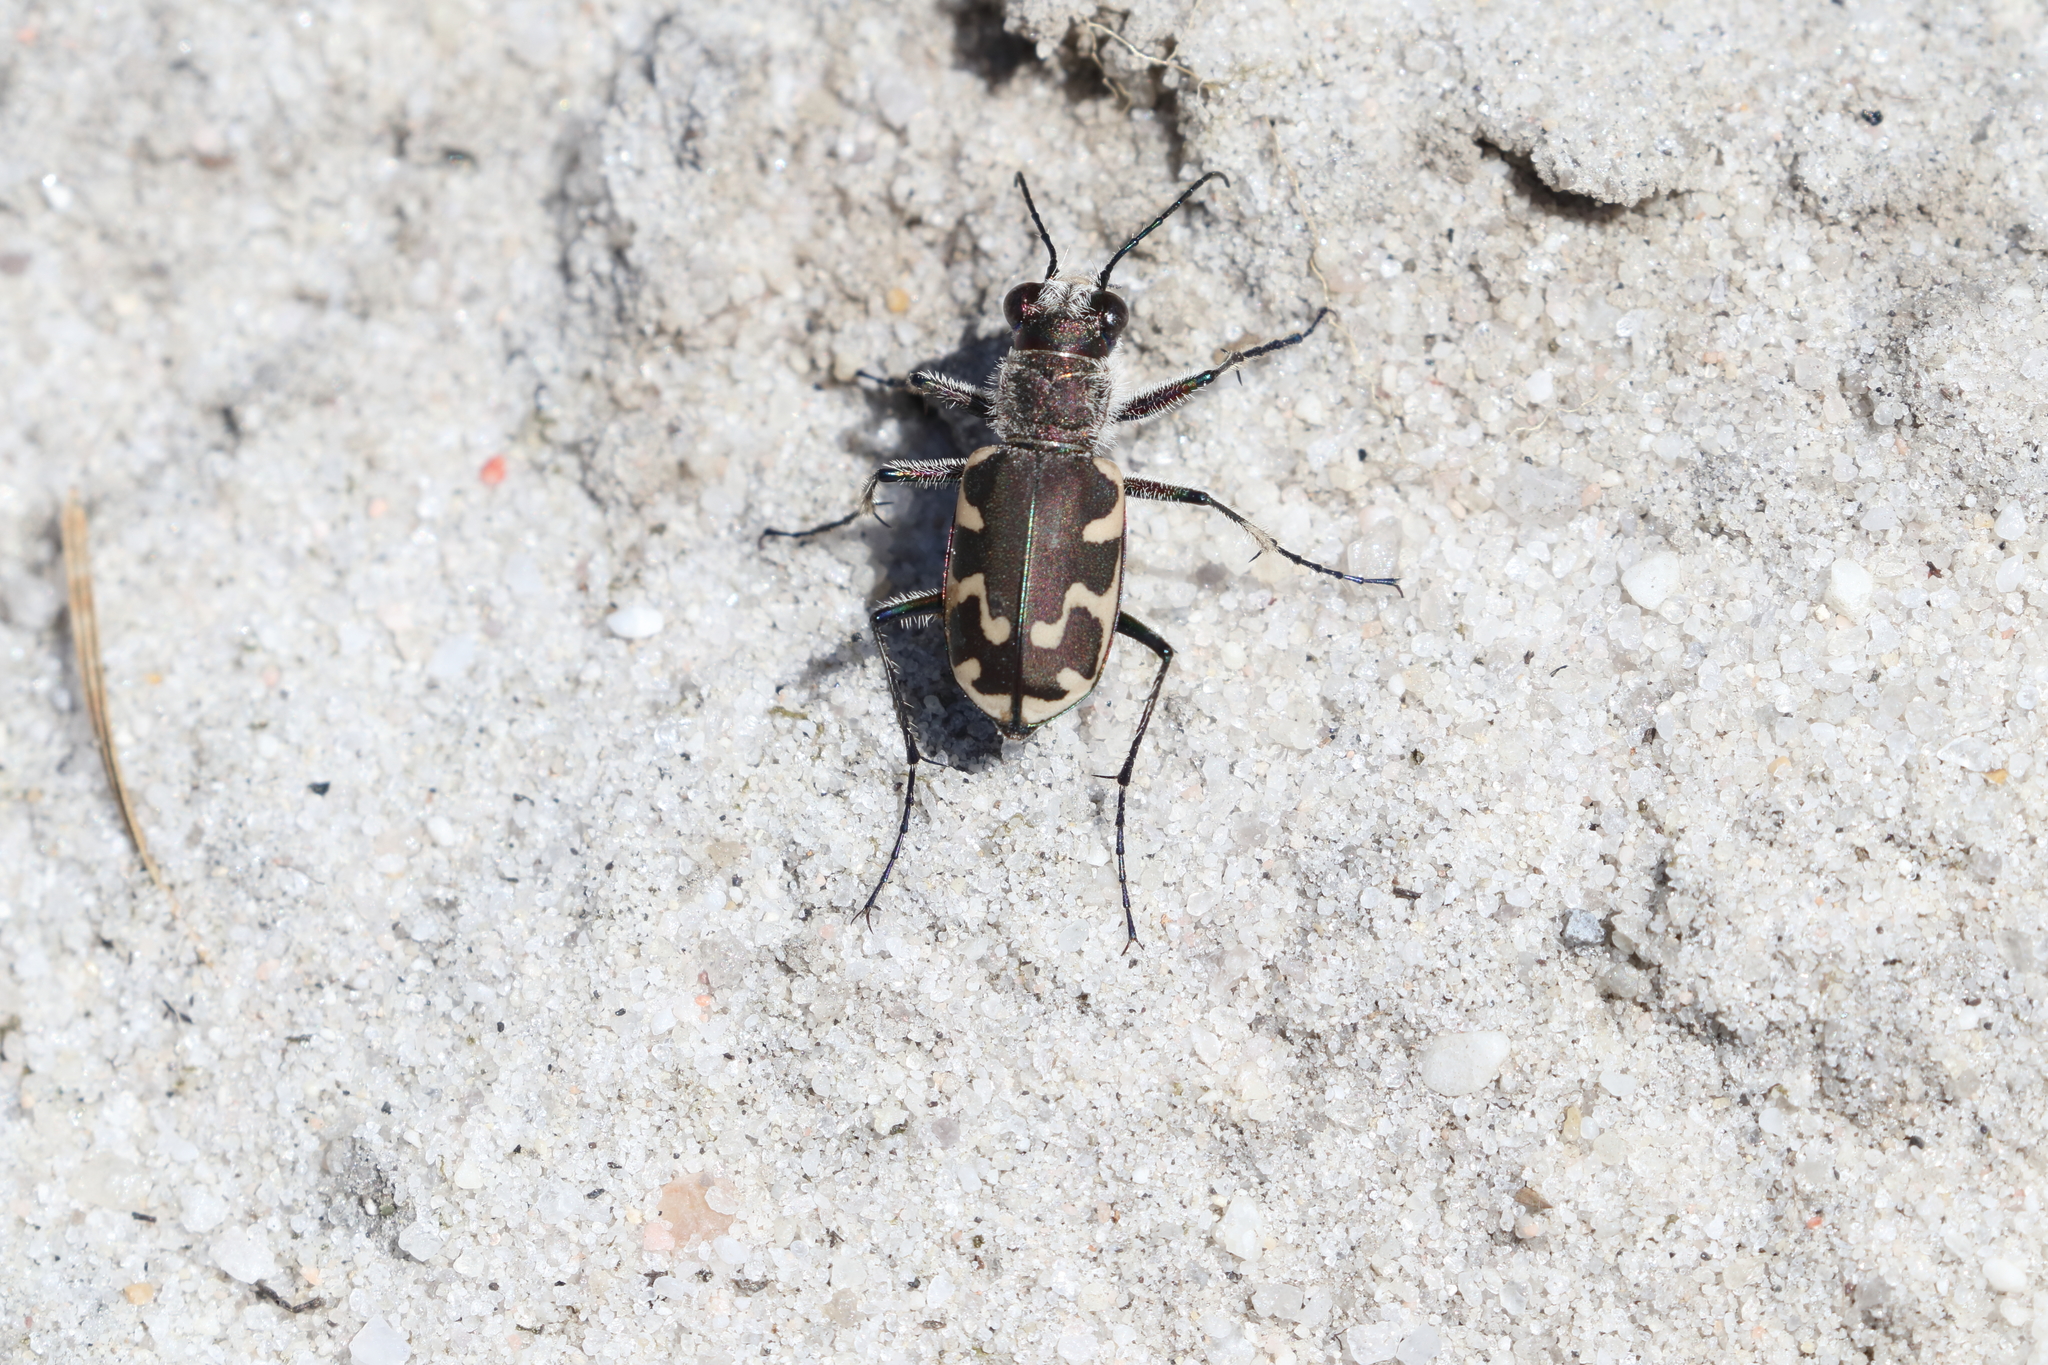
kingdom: Animalia
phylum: Arthropoda
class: Insecta
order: Coleoptera
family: Carabidae
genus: Cicindela
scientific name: Cicindela formosa
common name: Big sand tiger beetle
